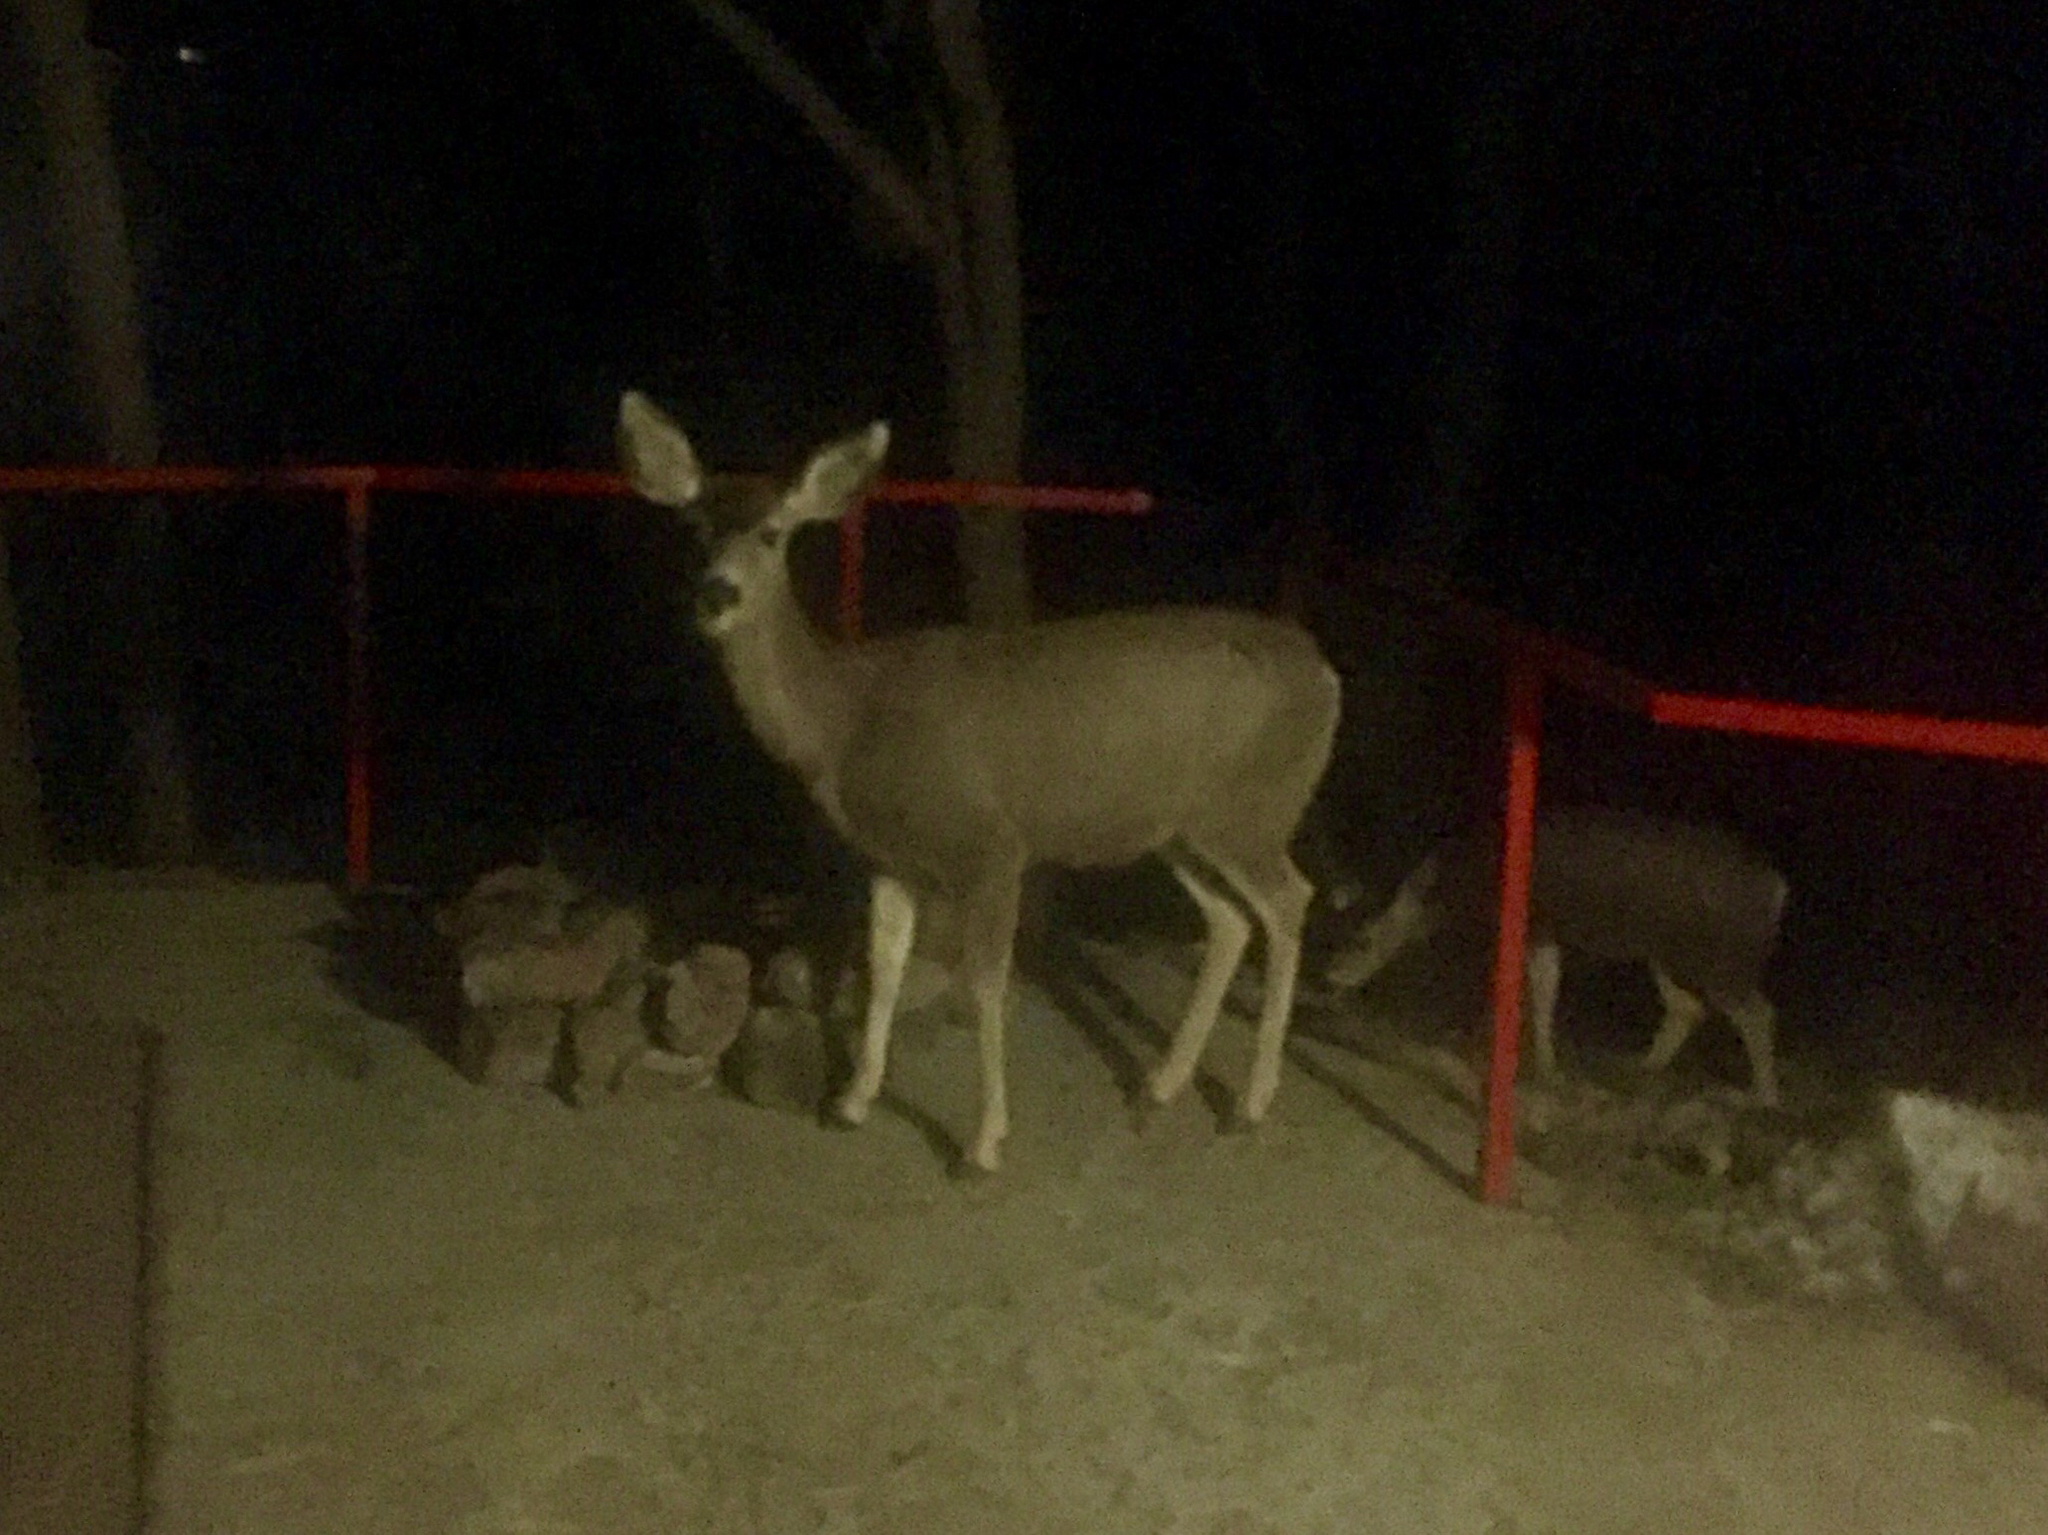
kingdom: Animalia
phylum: Chordata
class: Mammalia
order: Artiodactyla
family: Cervidae
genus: Odocoileus
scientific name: Odocoileus hemionus
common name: Mule deer
